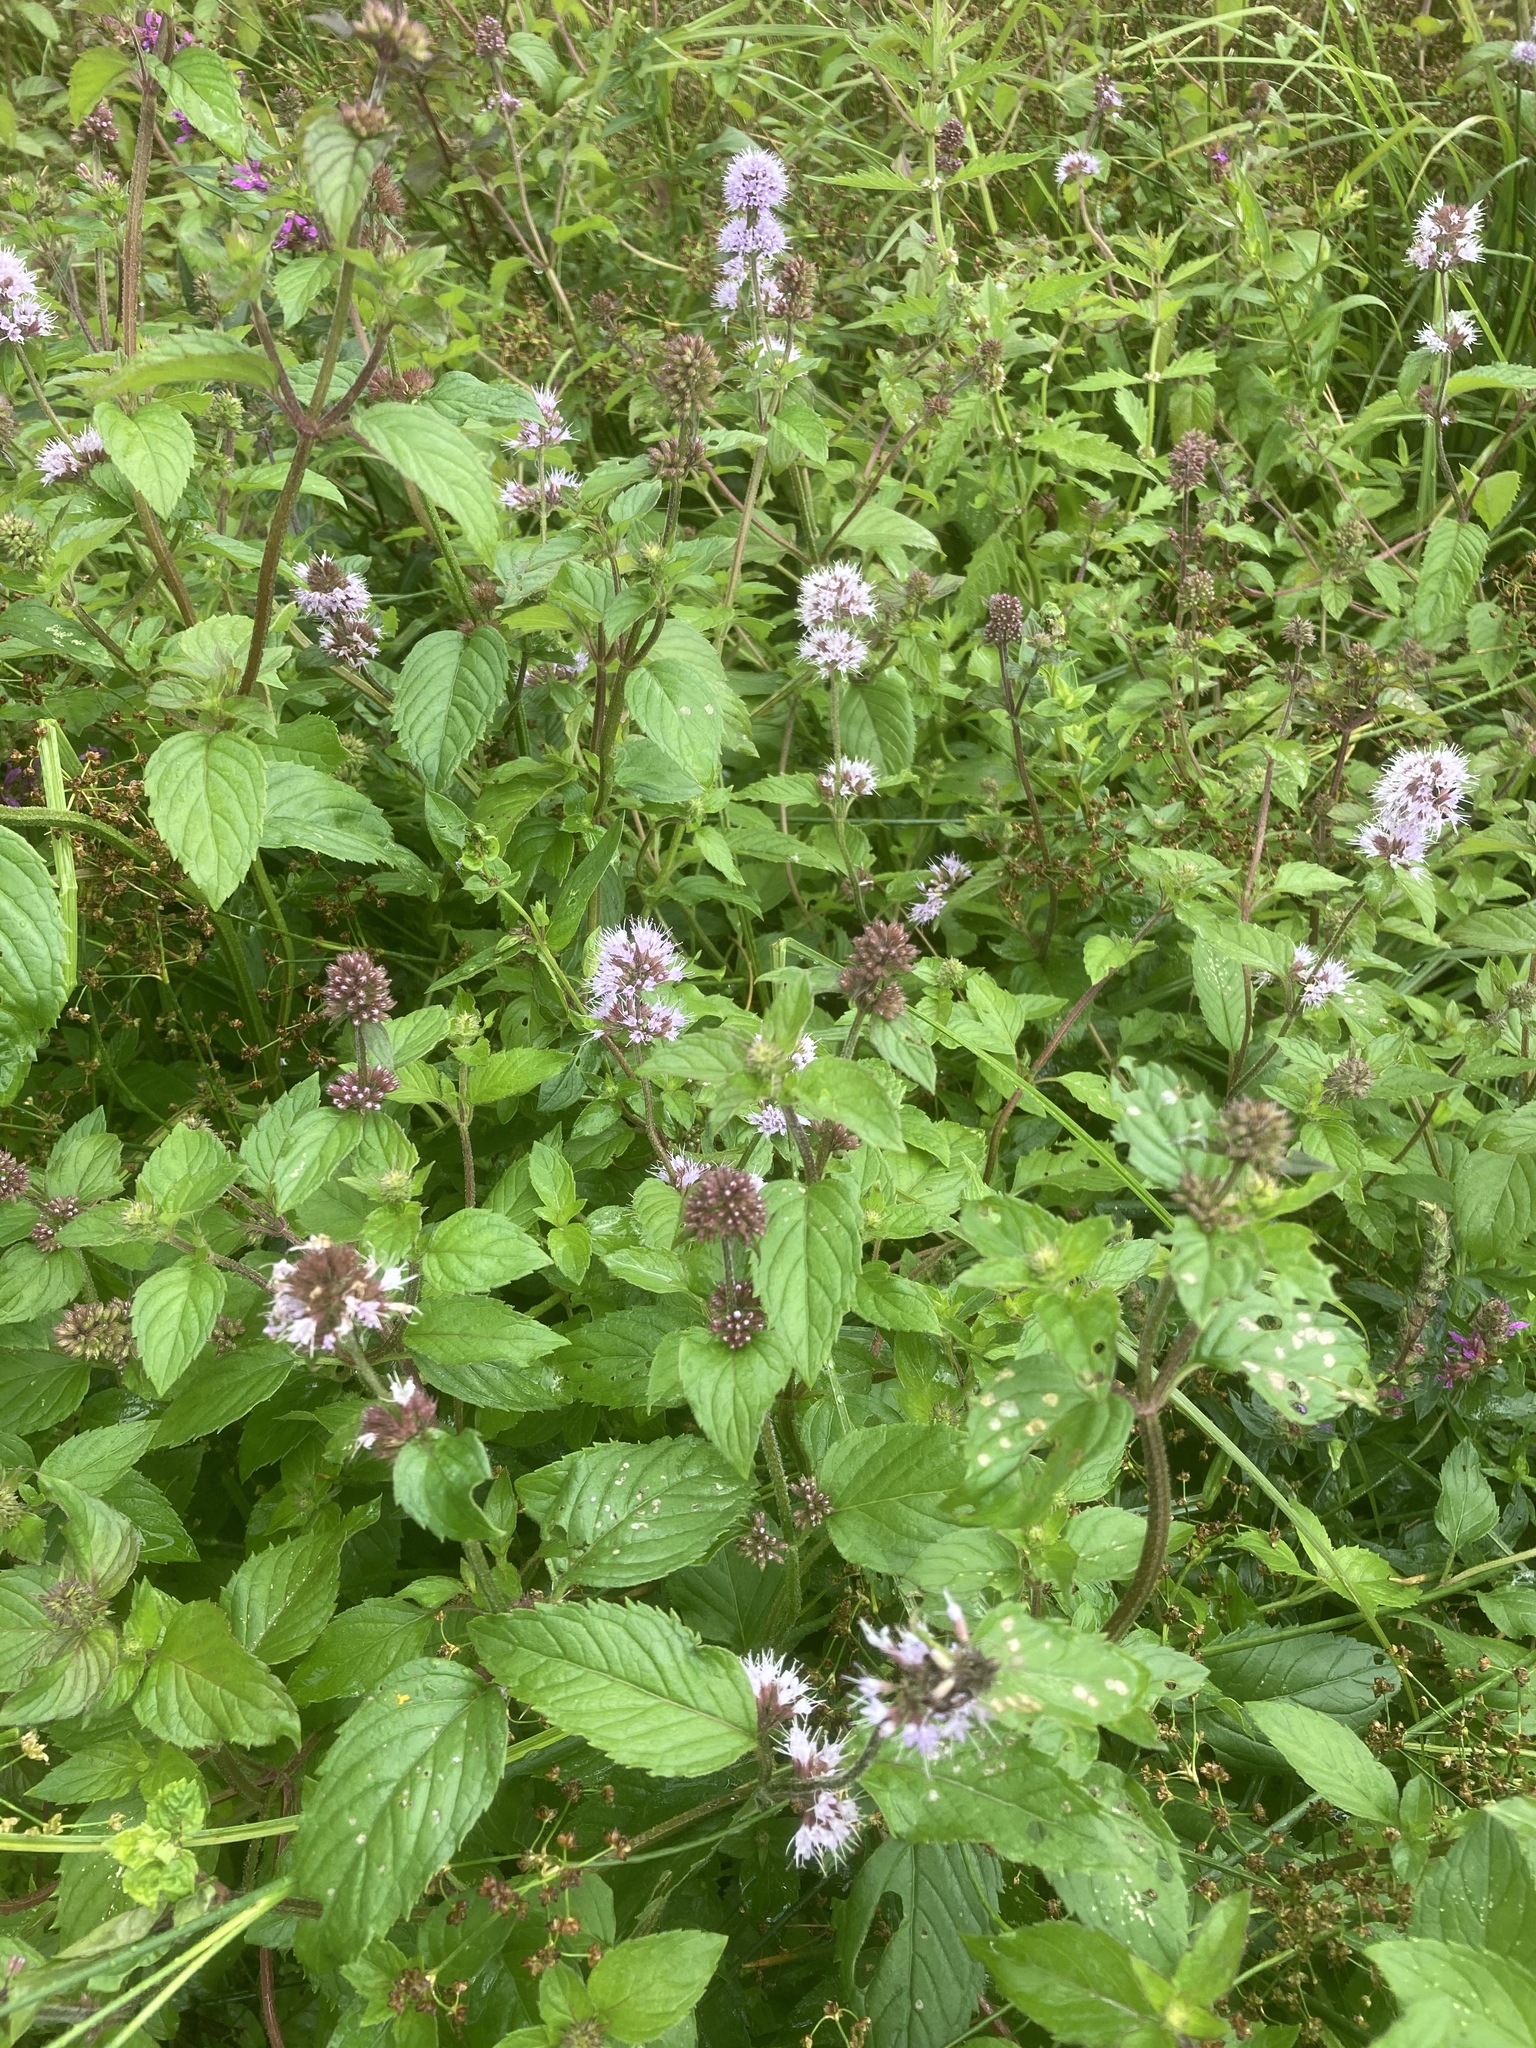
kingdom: Plantae
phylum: Tracheophyta
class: Magnoliopsida
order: Lamiales
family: Lamiaceae
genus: Mentha
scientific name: Mentha aquatica
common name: Water mint
